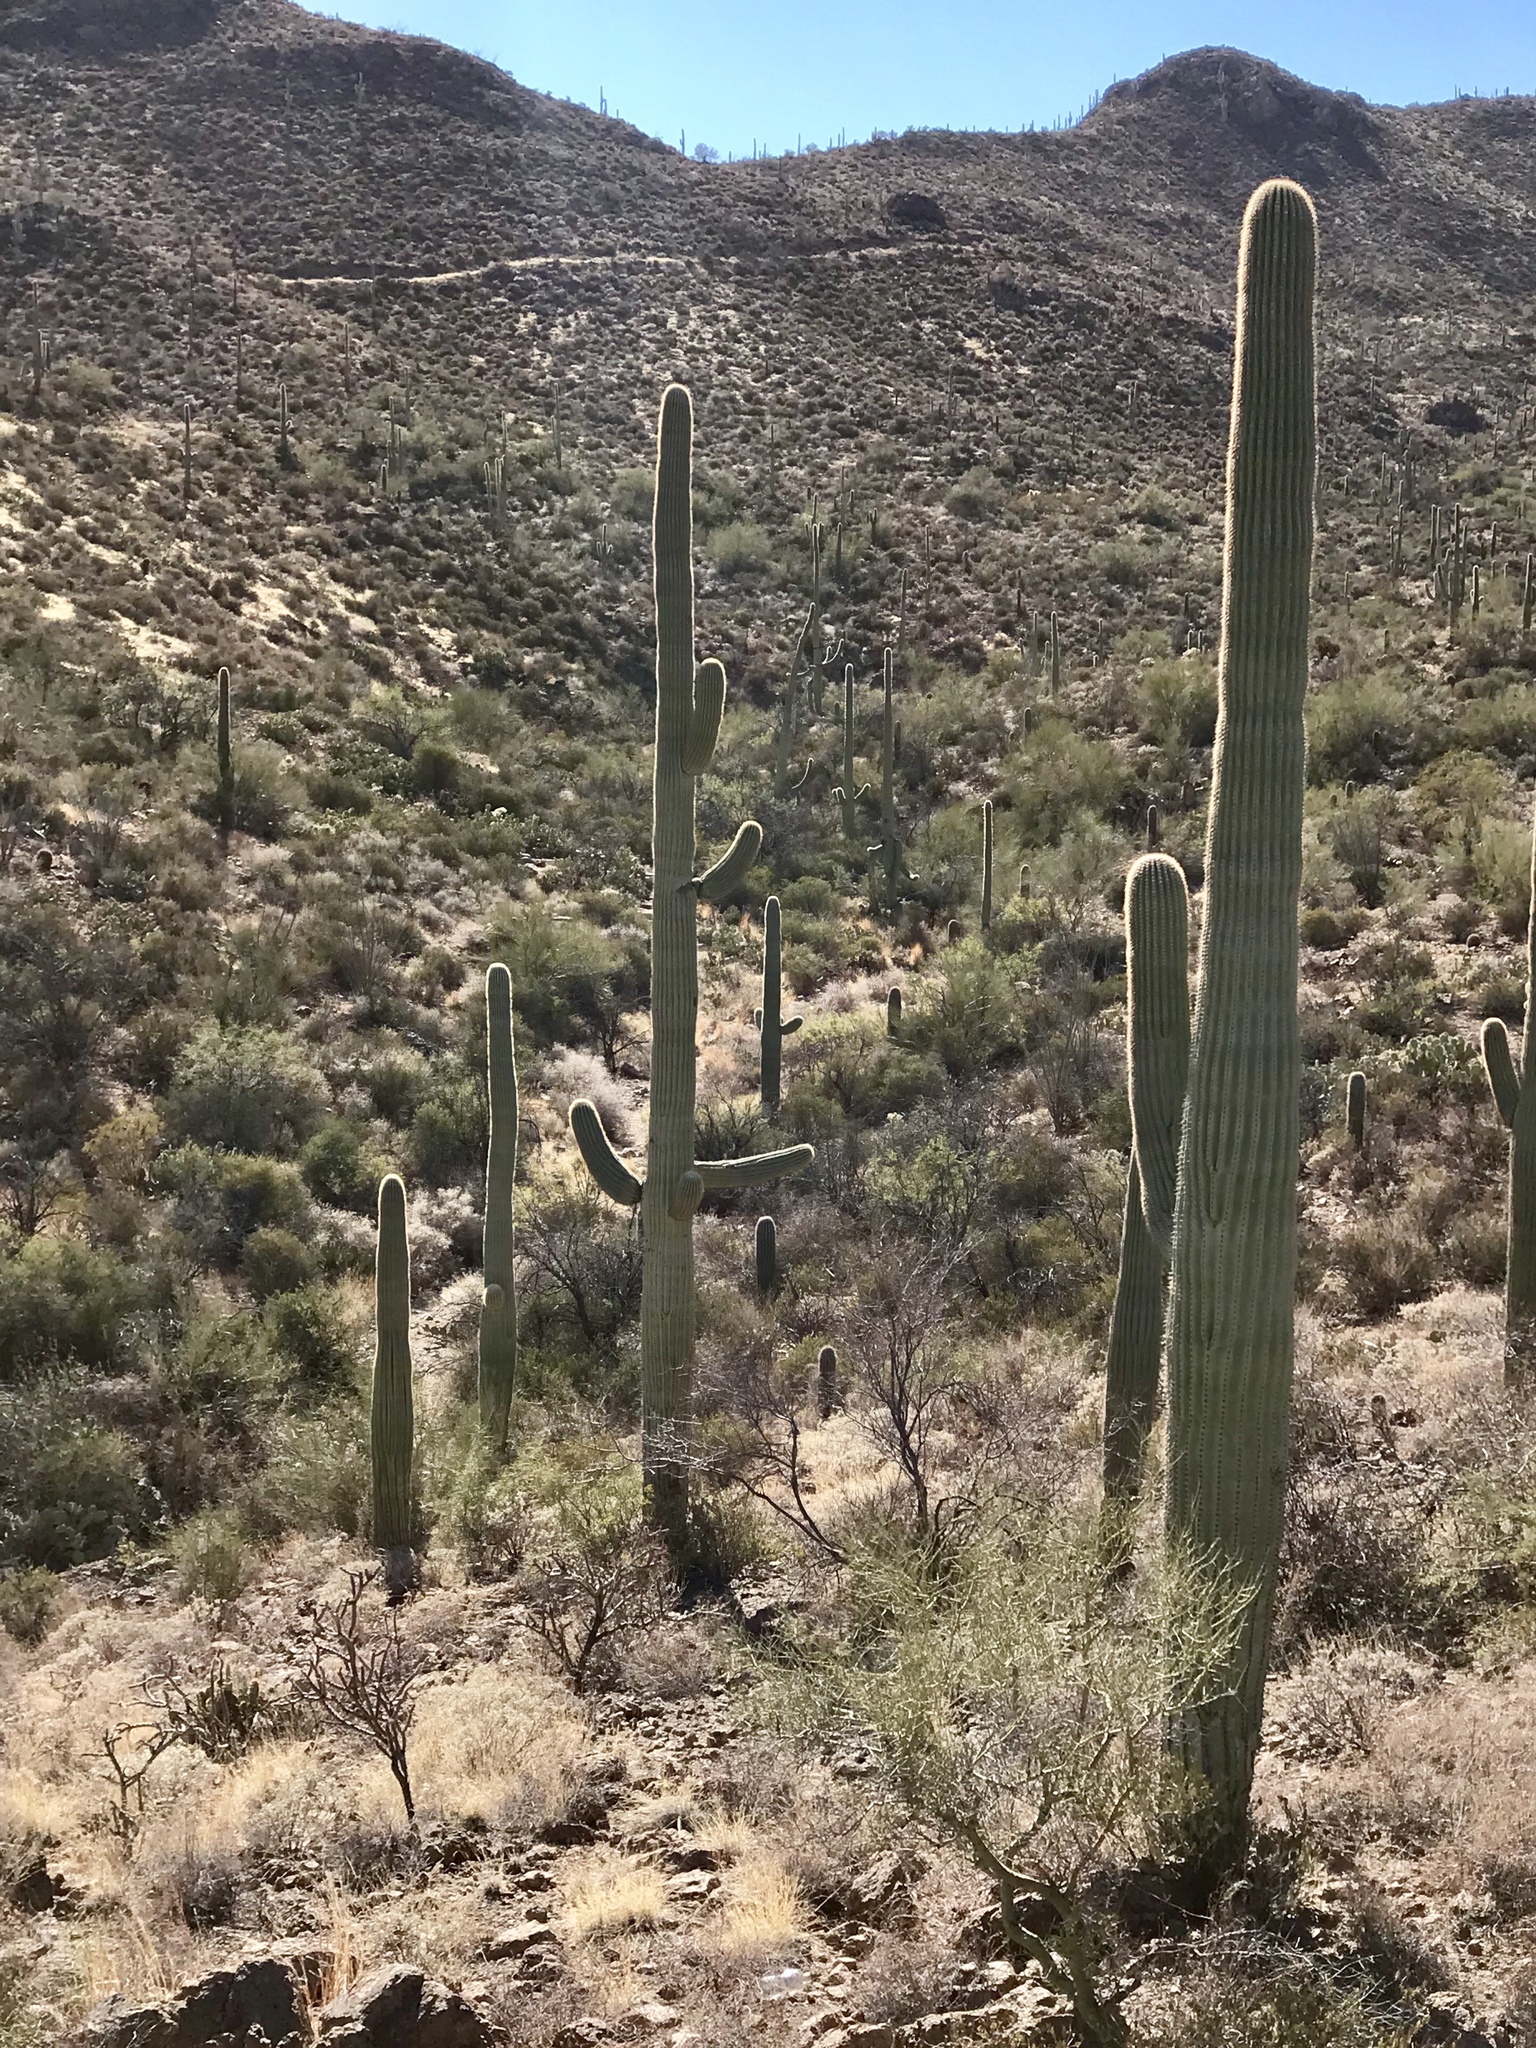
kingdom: Plantae
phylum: Tracheophyta
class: Magnoliopsida
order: Caryophyllales
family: Cactaceae
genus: Carnegiea
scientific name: Carnegiea gigantea
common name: Saguaro
